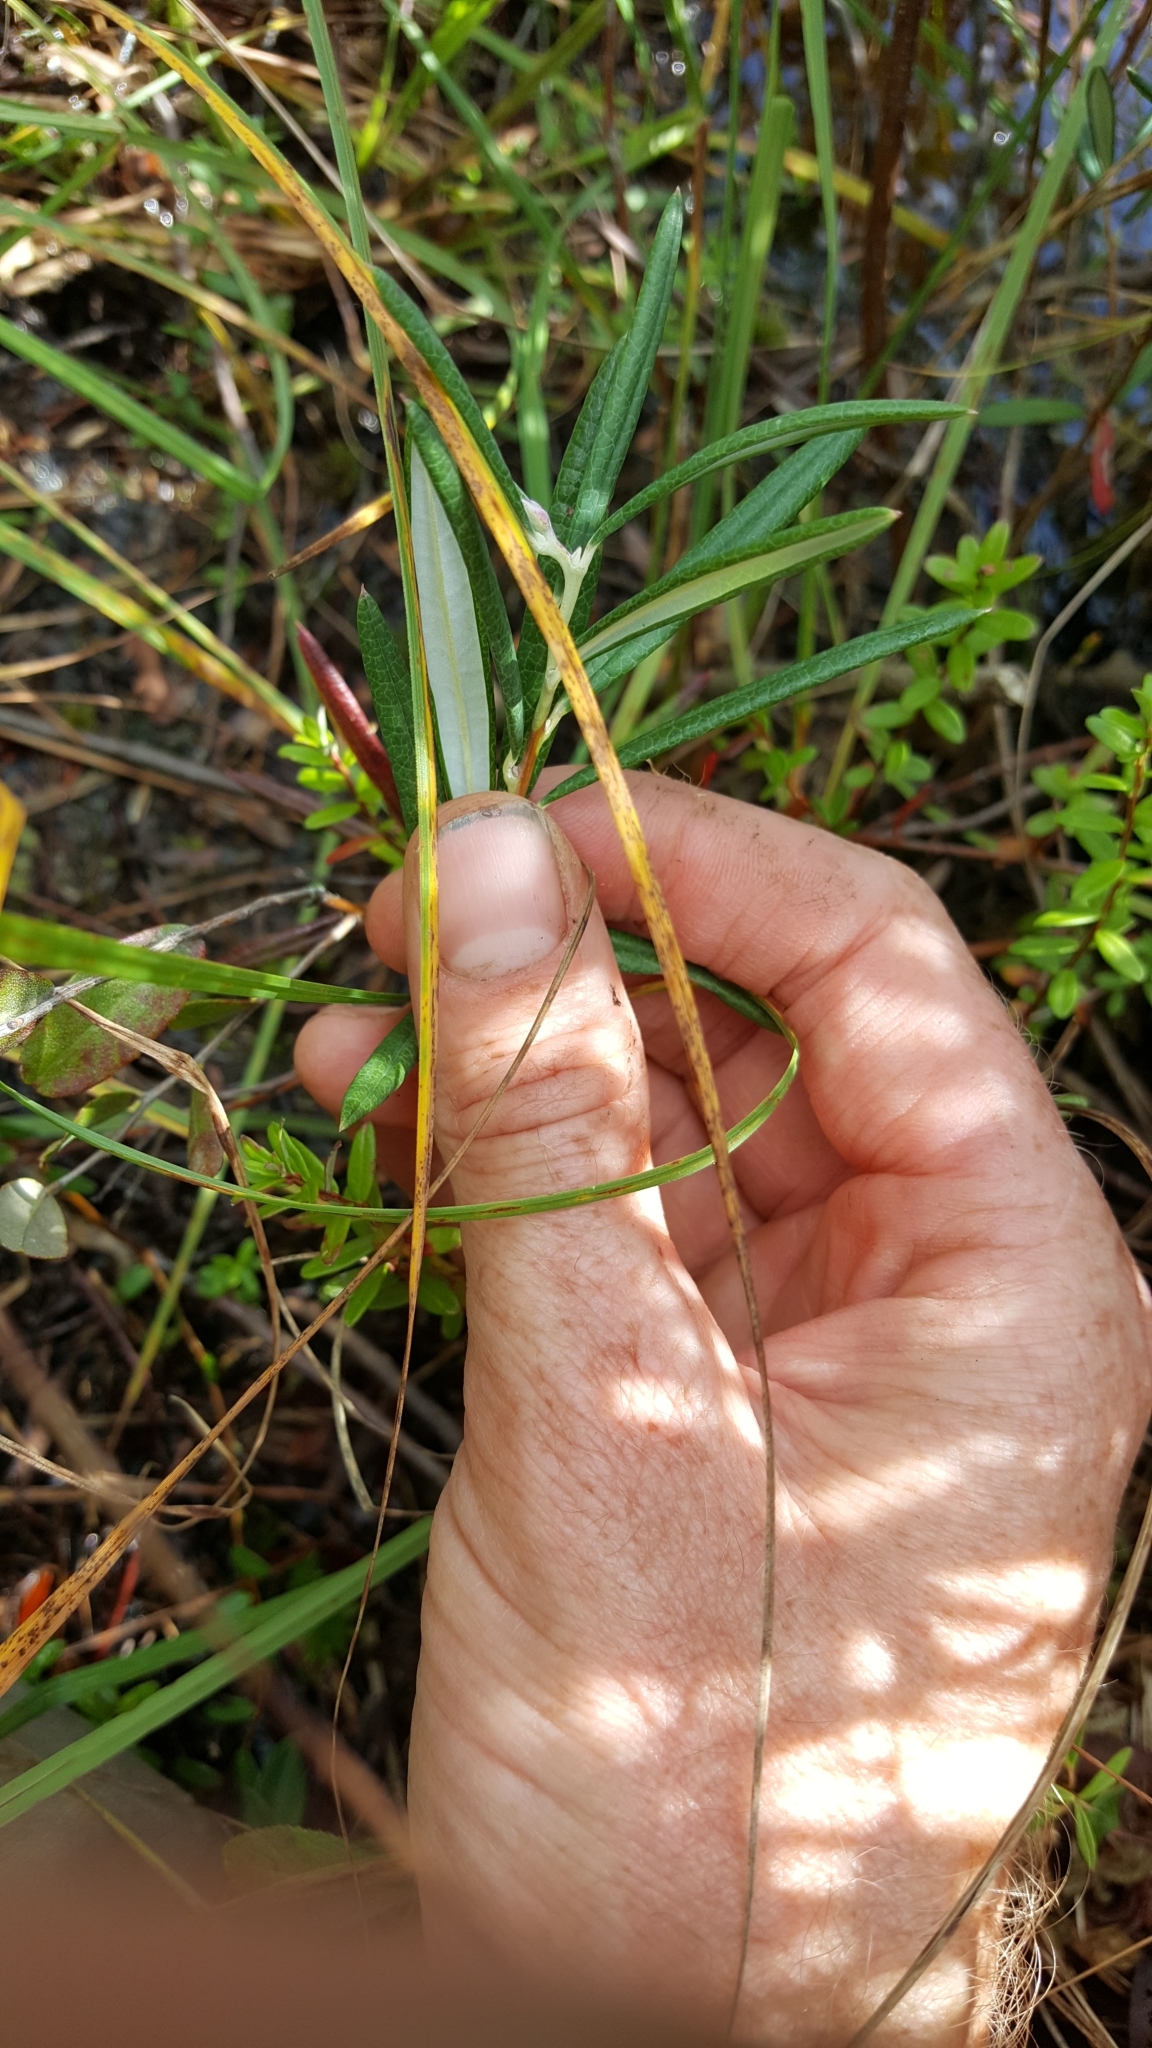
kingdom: Plantae
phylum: Tracheophyta
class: Magnoliopsida
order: Ericales
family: Ericaceae
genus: Andromeda
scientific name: Andromeda polifolia
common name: Bog-rosemary
